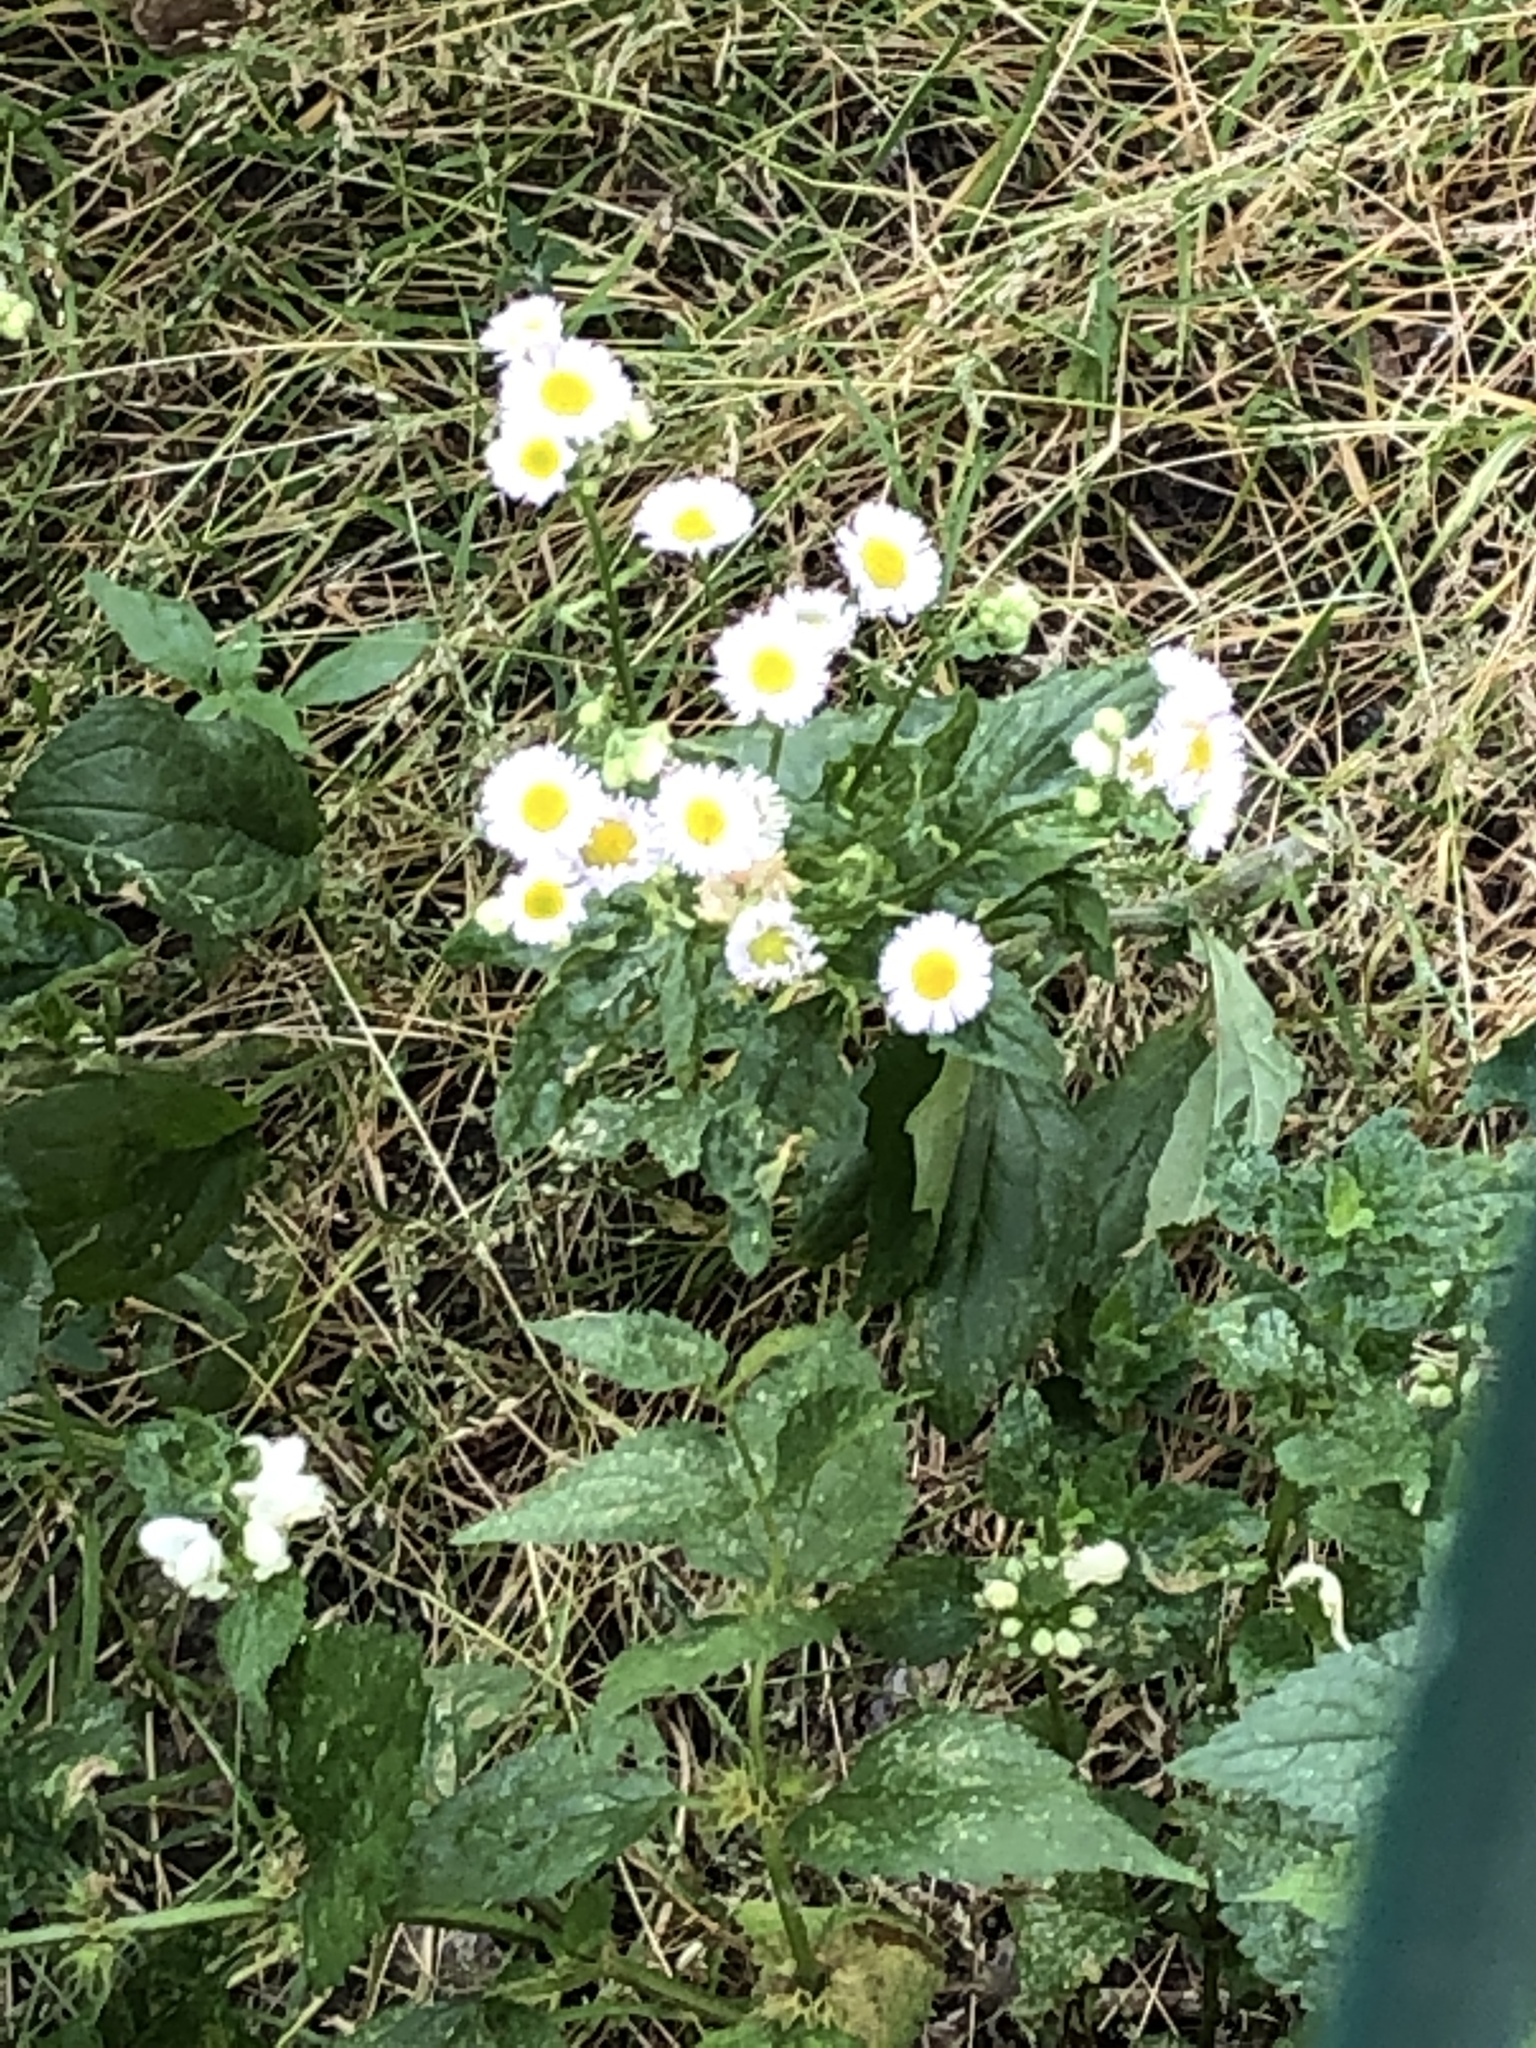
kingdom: Plantae
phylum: Tracheophyta
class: Magnoliopsida
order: Asterales
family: Asteraceae
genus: Erigeron
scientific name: Erigeron annuus
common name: Tall fleabane
